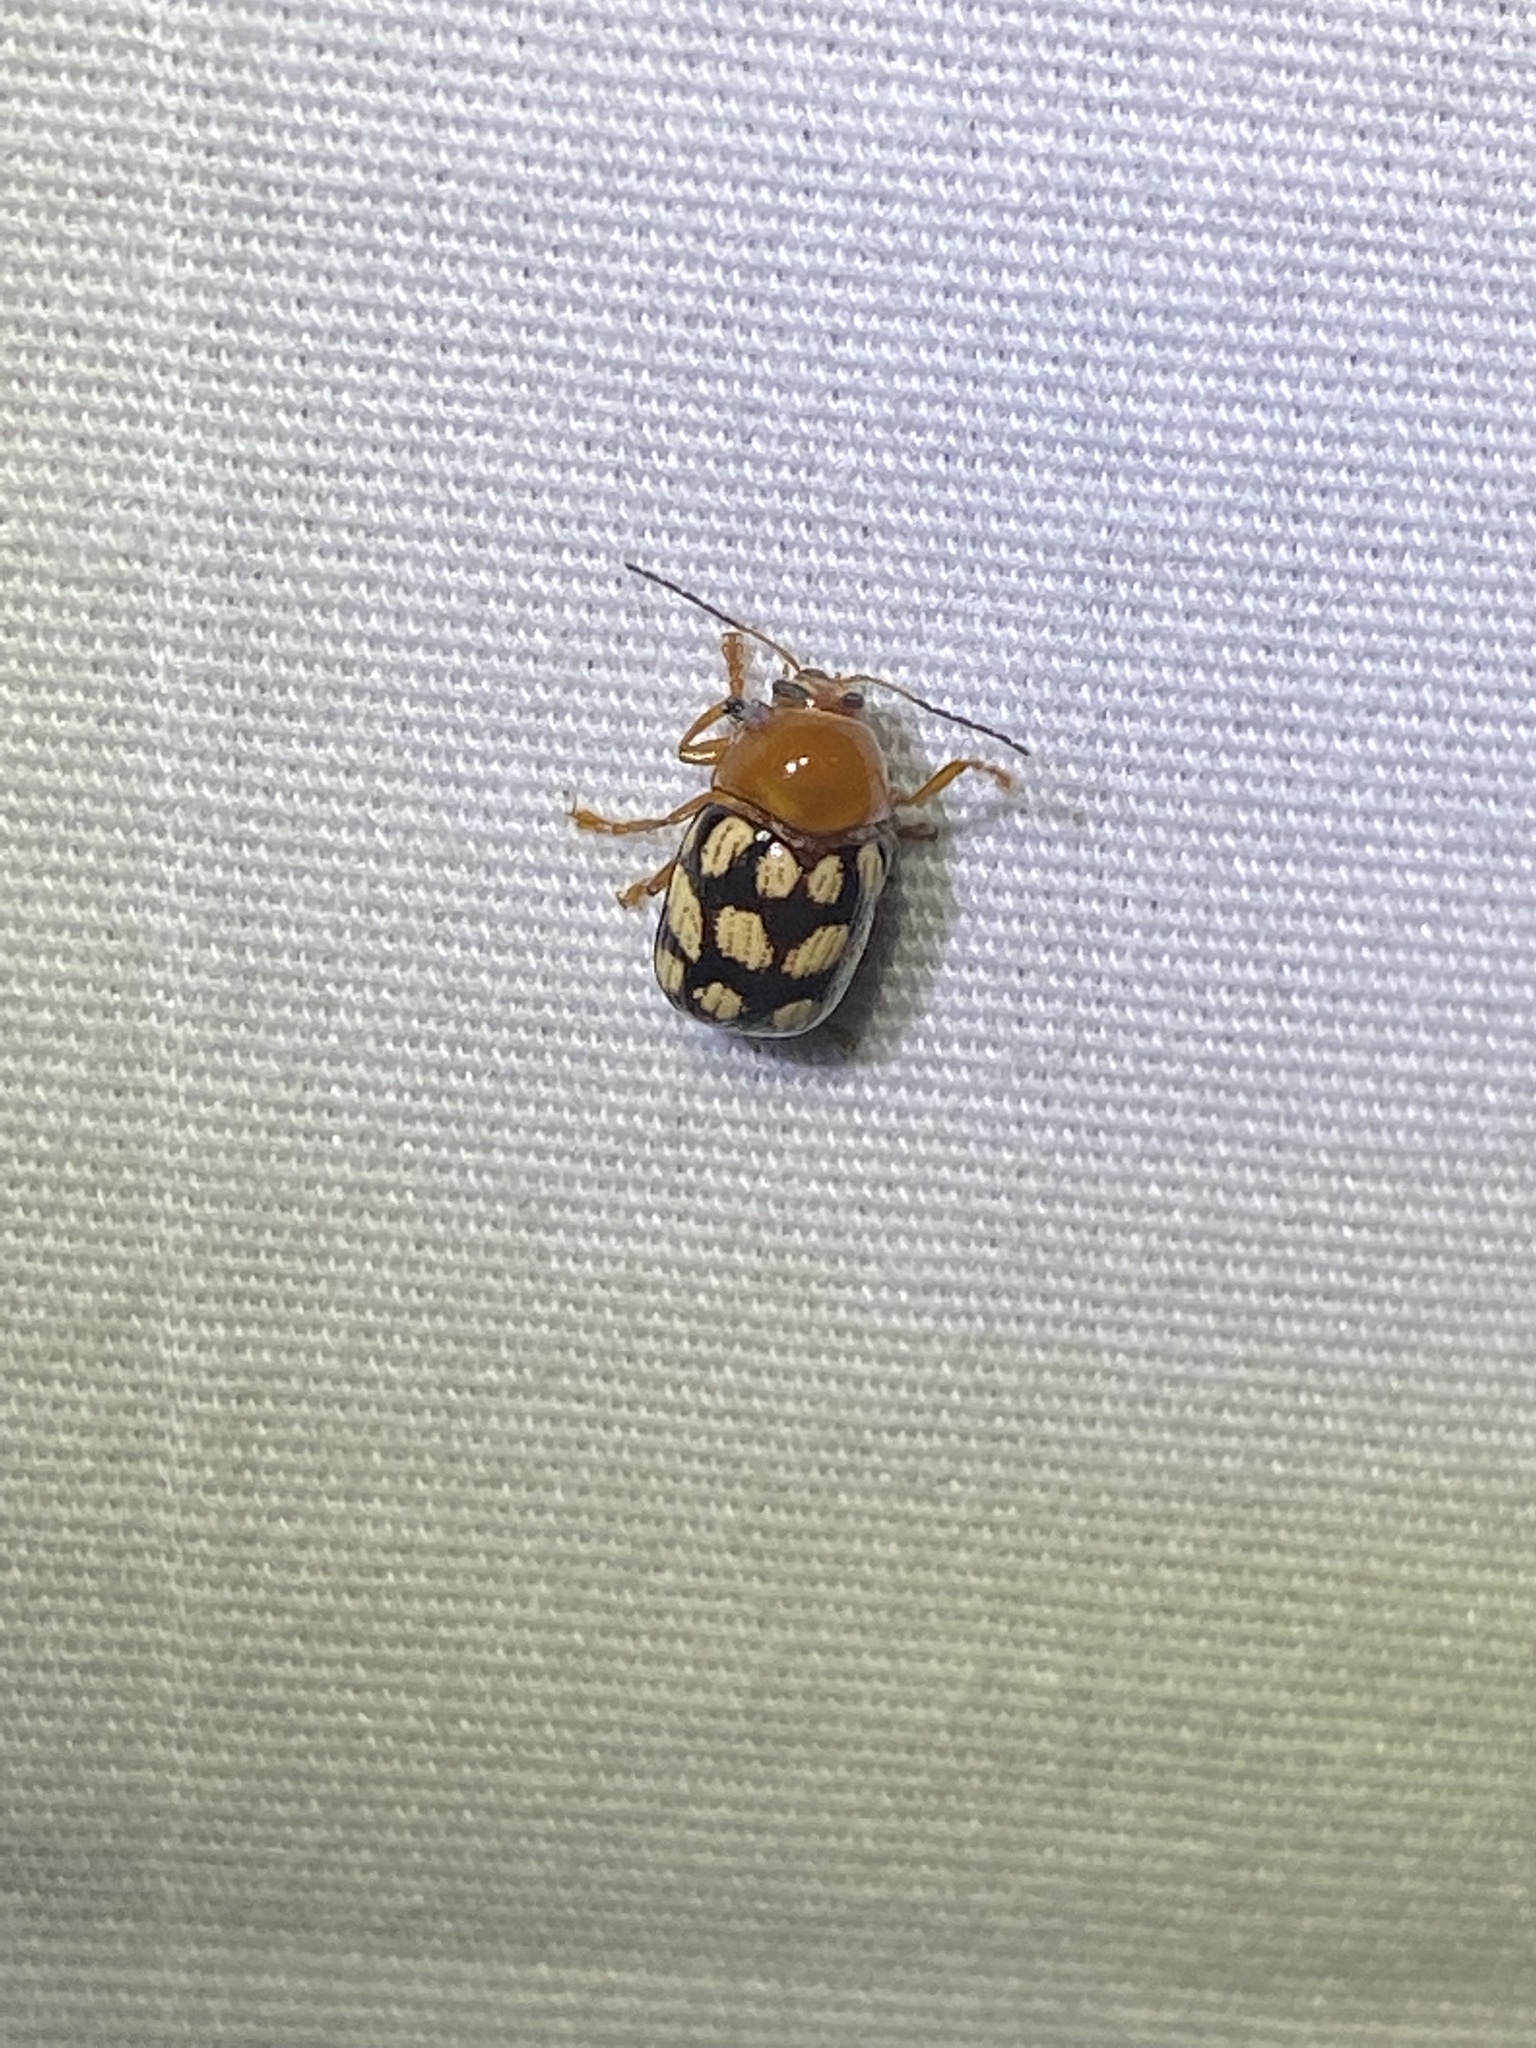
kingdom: Animalia
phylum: Arthropoda
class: Insecta
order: Coleoptera
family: Chrysomelidae
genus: Cryptocephalus
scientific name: Cryptocephalus guttulatus
